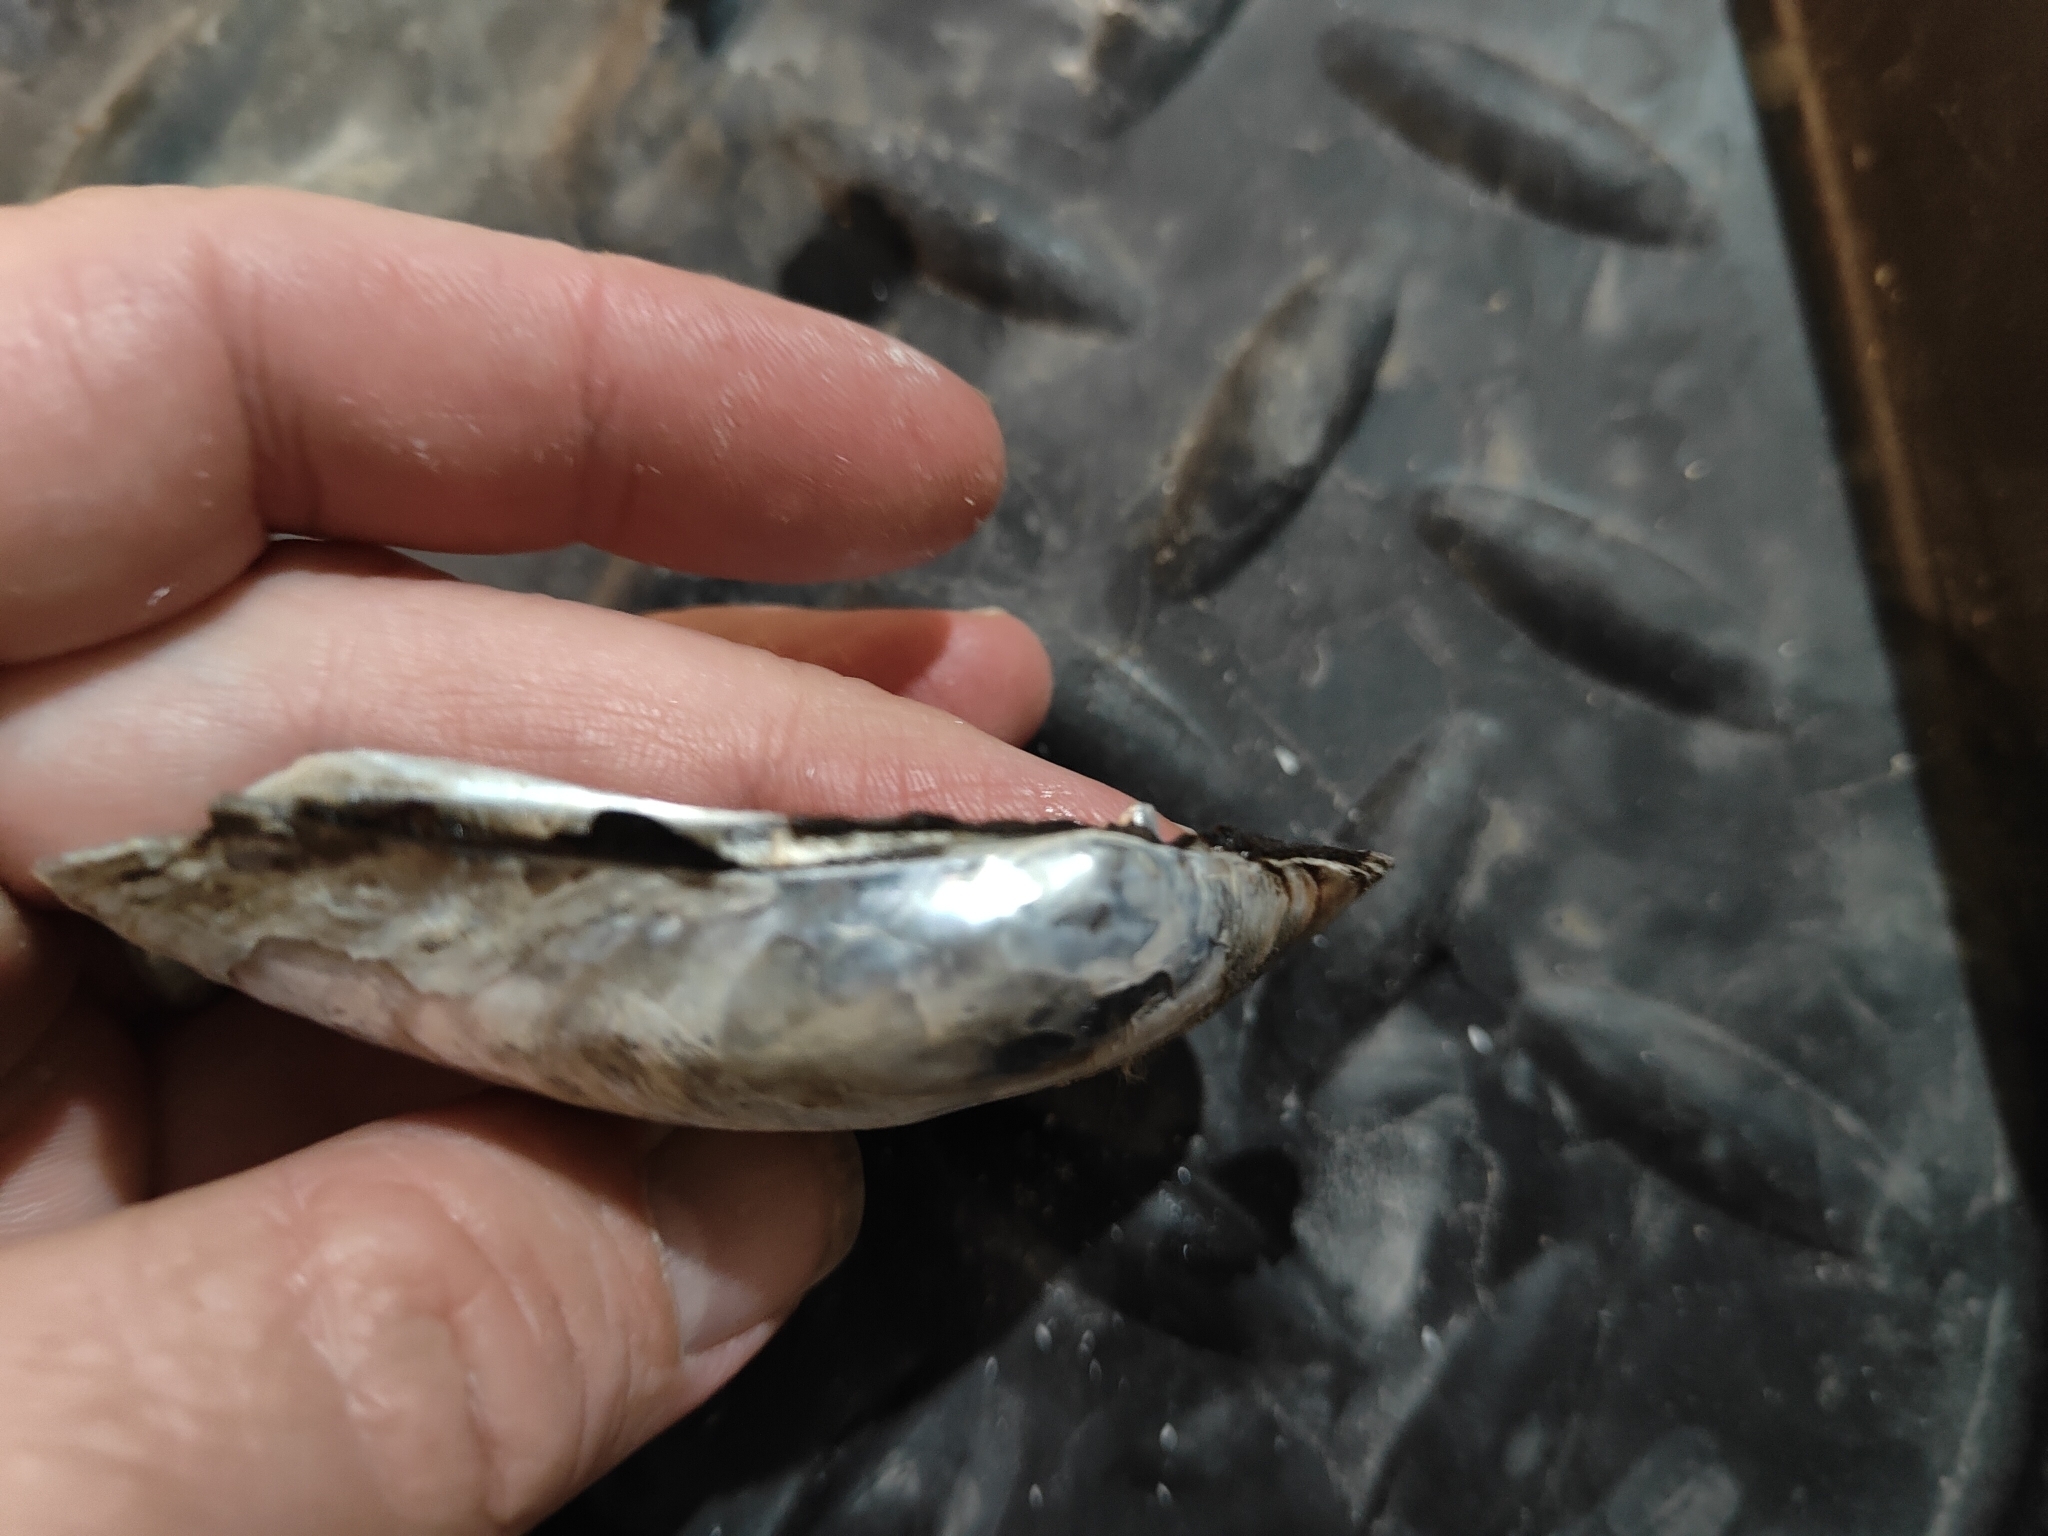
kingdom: Animalia
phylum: Mollusca
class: Bivalvia
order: Unionida
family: Unionidae
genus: Lampsilis
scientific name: Lampsilis siliquoidea
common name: Fatmucket
